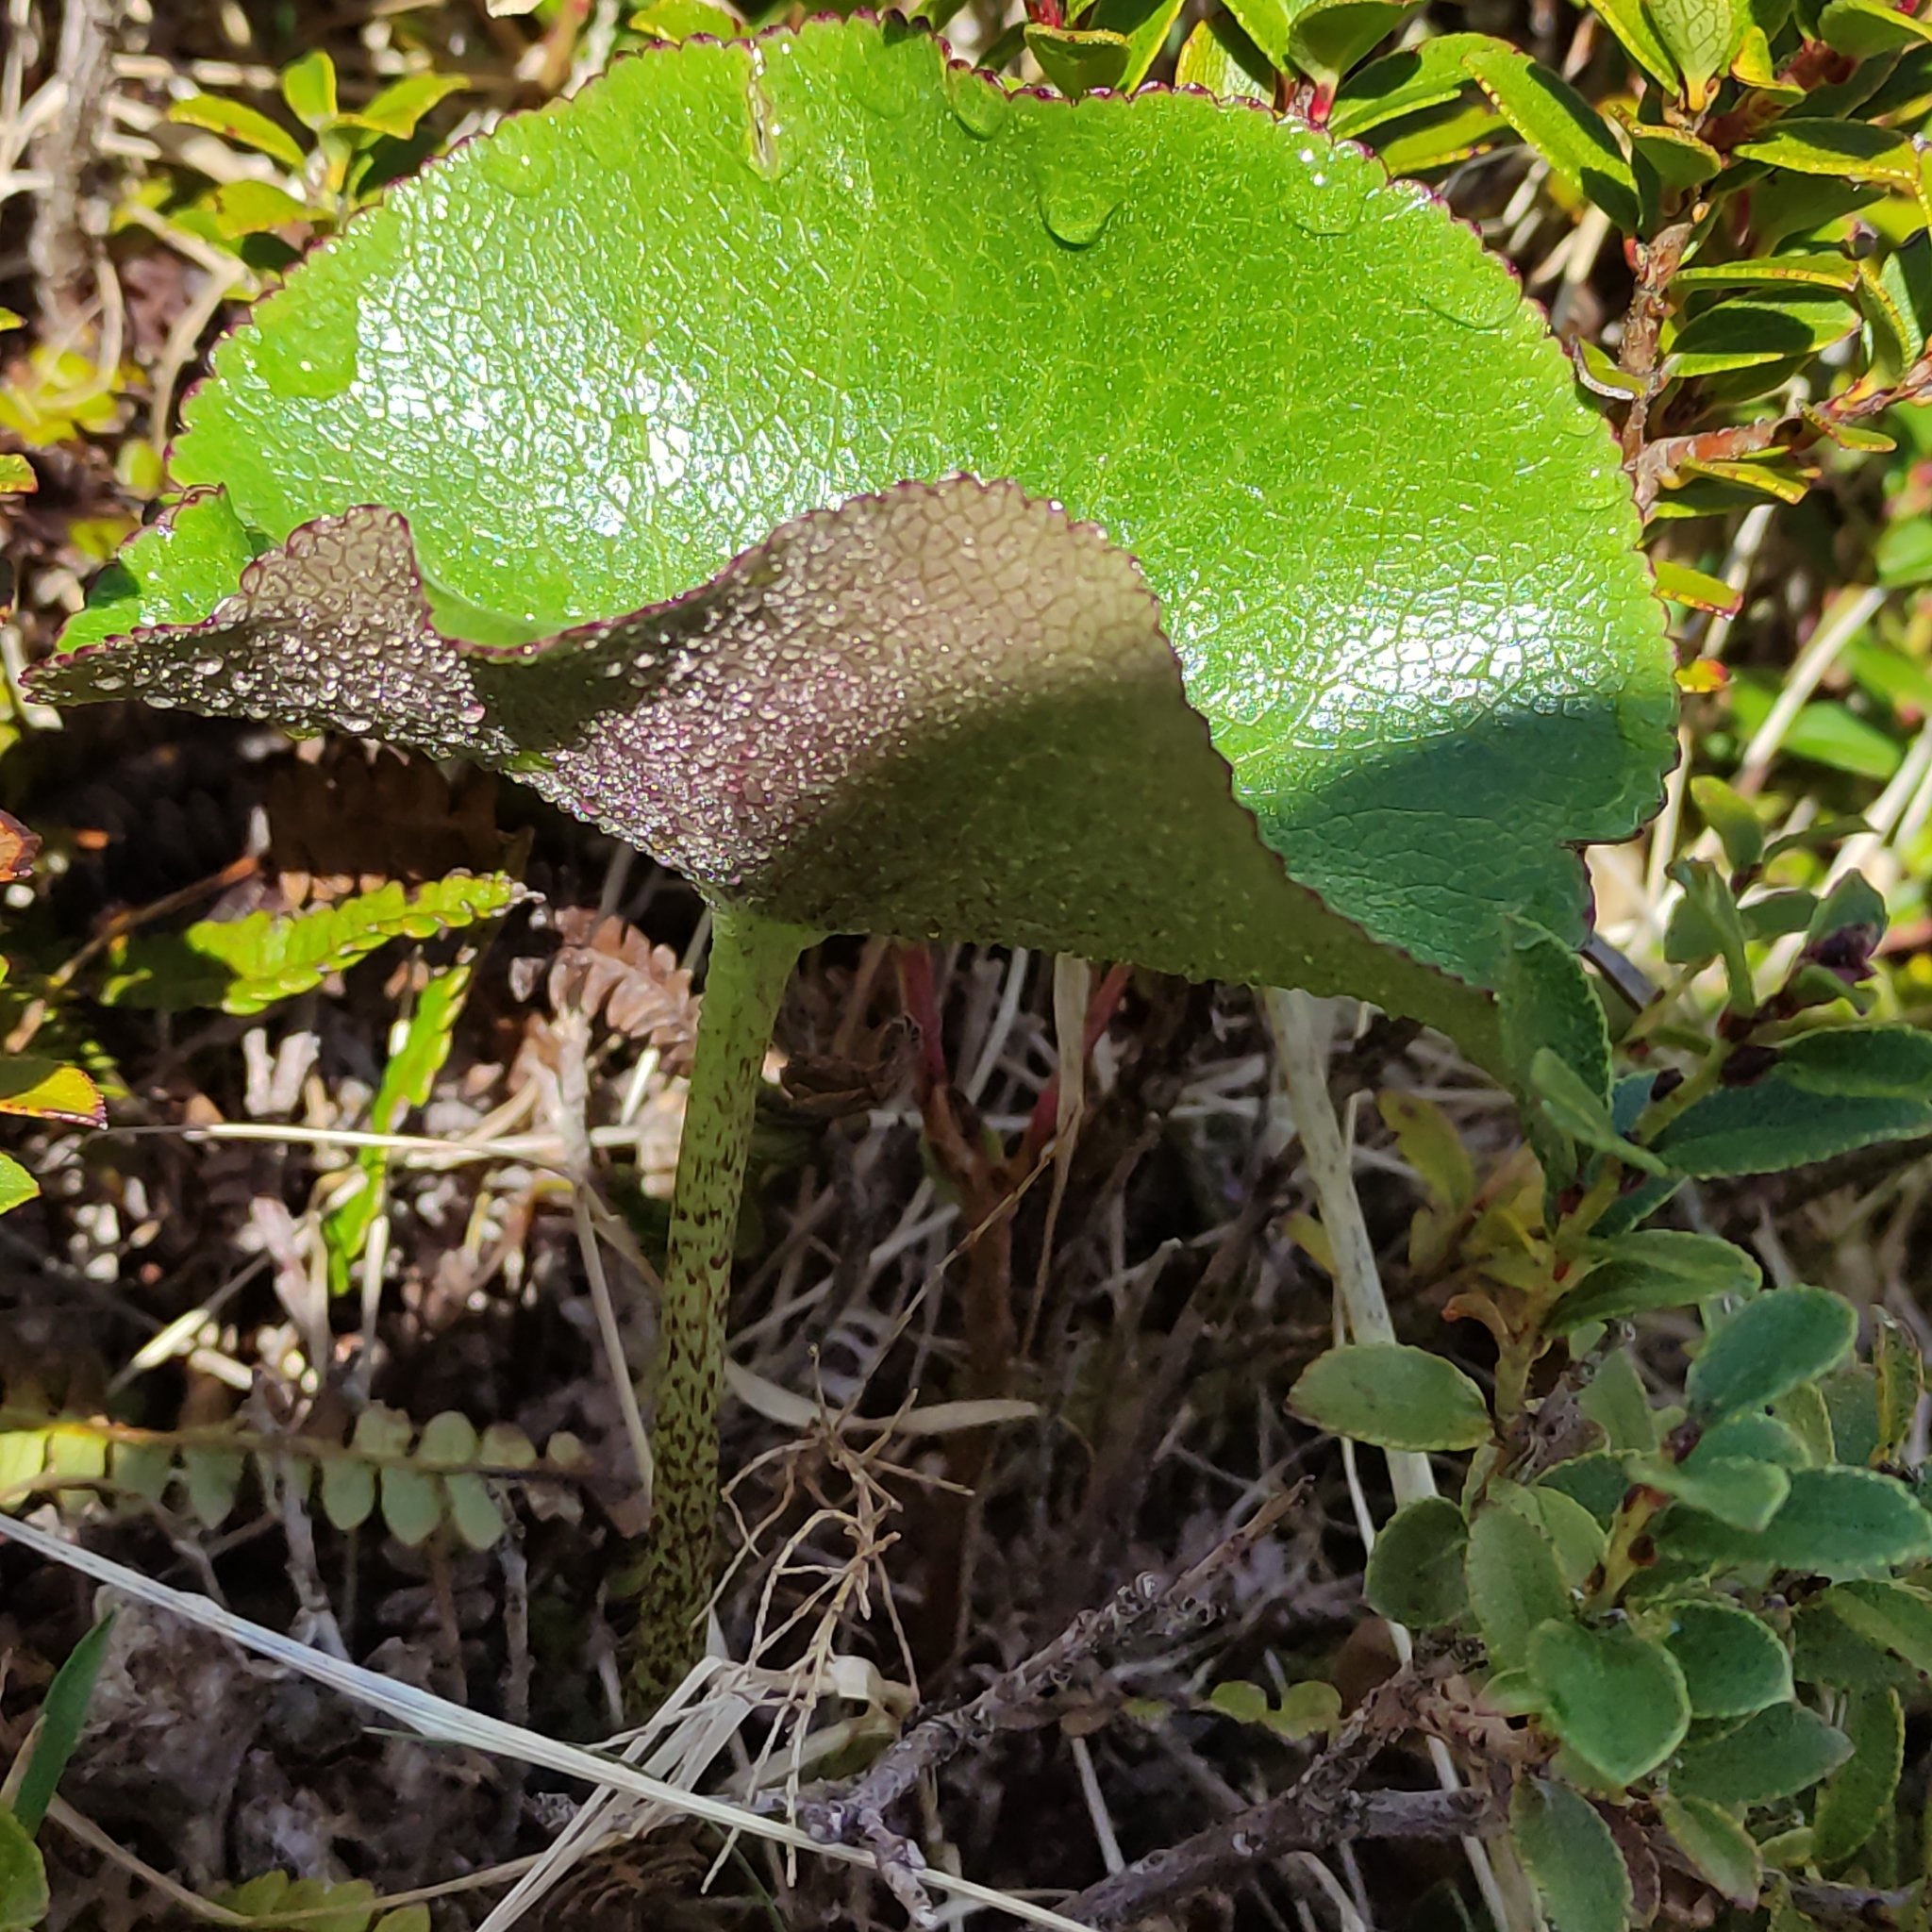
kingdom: Plantae
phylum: Tracheophyta
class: Magnoliopsida
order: Ranunculales
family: Ranunculaceae
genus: Ranunculus
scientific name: Ranunculus lyallii
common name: Mountain-lily
